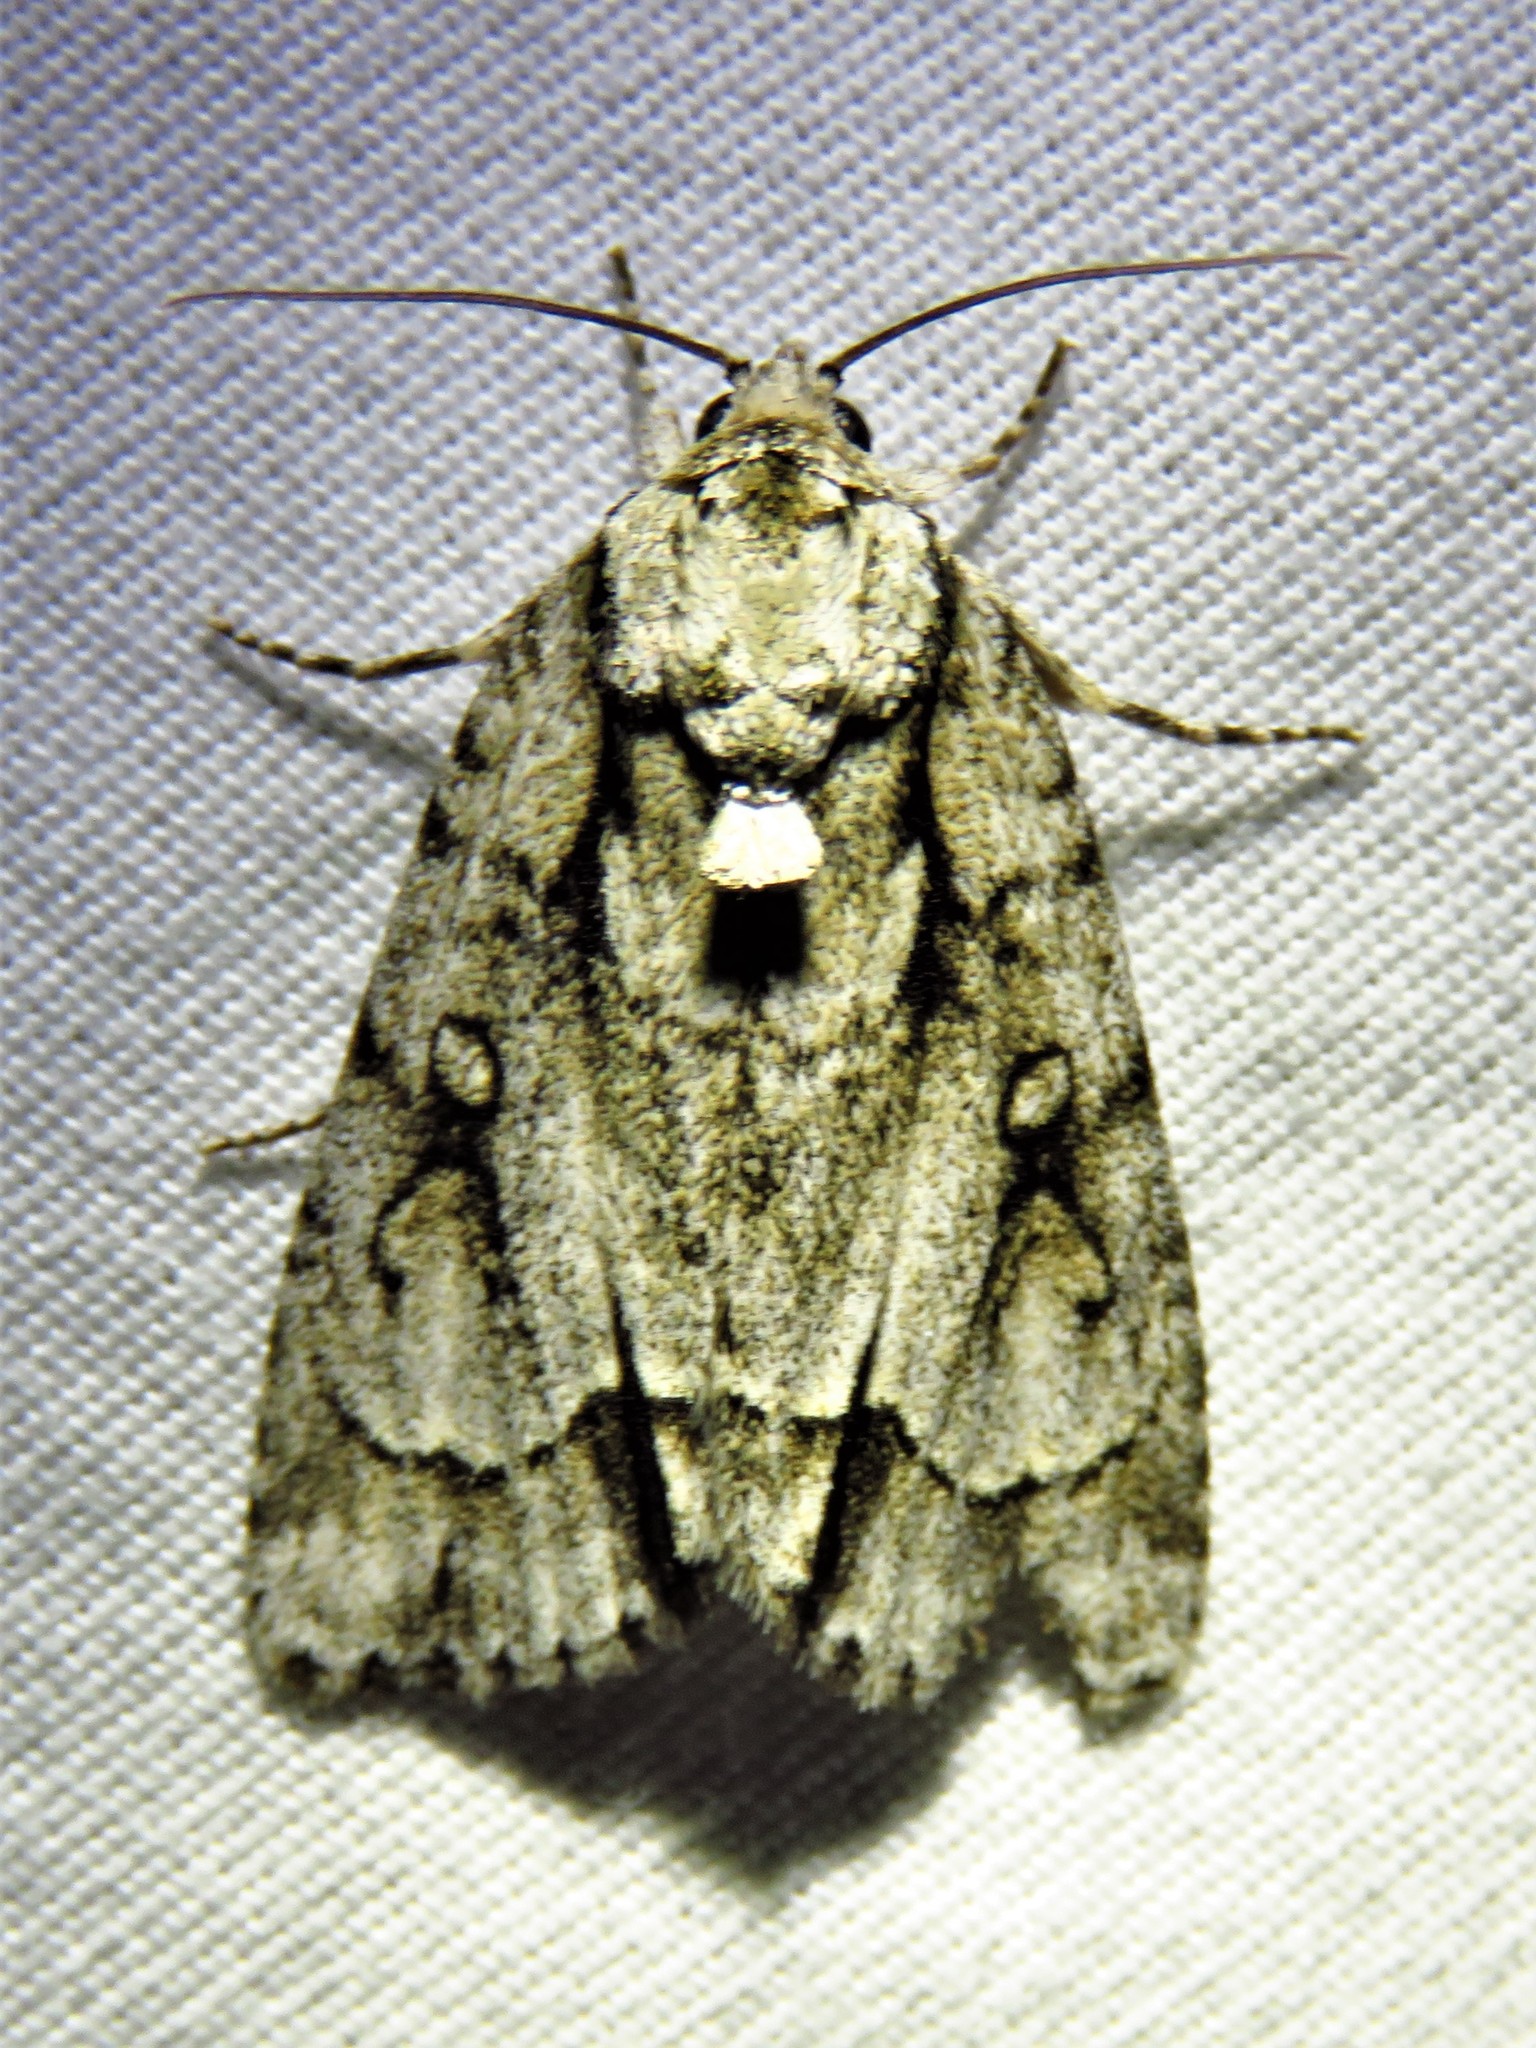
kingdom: Animalia
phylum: Arthropoda
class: Insecta
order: Lepidoptera
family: Noctuidae
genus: Acronicta
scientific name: Acronicta vinnula
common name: Delightful dagger
